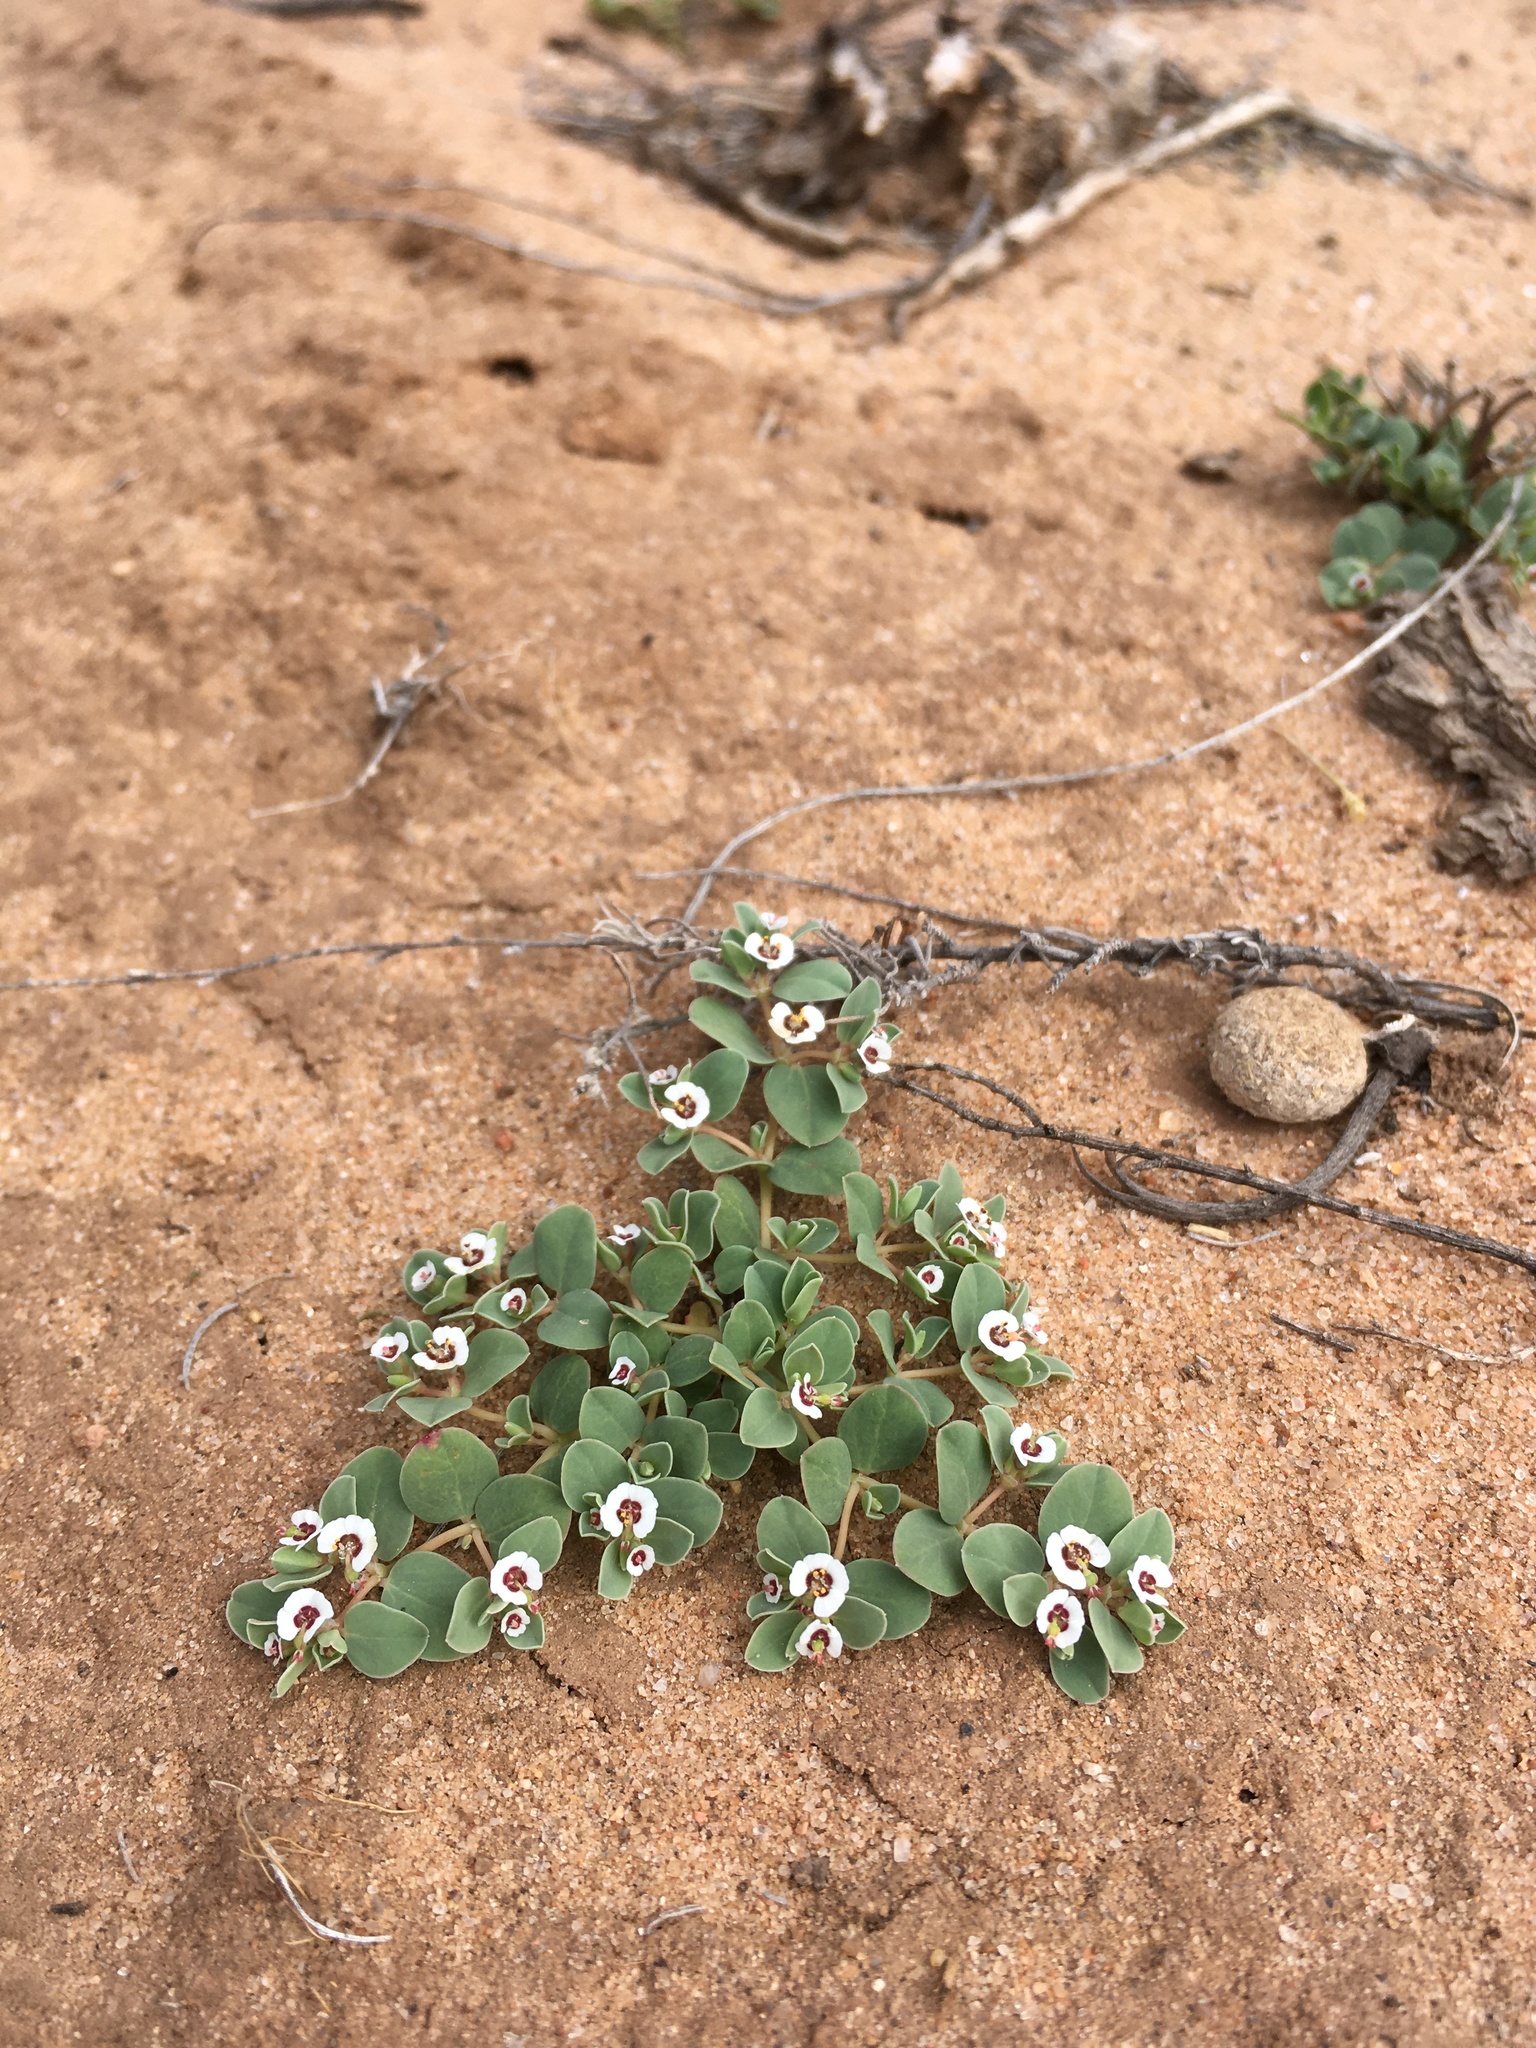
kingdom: Plantae
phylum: Tracheophyta
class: Magnoliopsida
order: Malpighiales
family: Euphorbiaceae
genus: Euphorbia
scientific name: Euphorbia albomarginata
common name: Whitemargin sandmat
